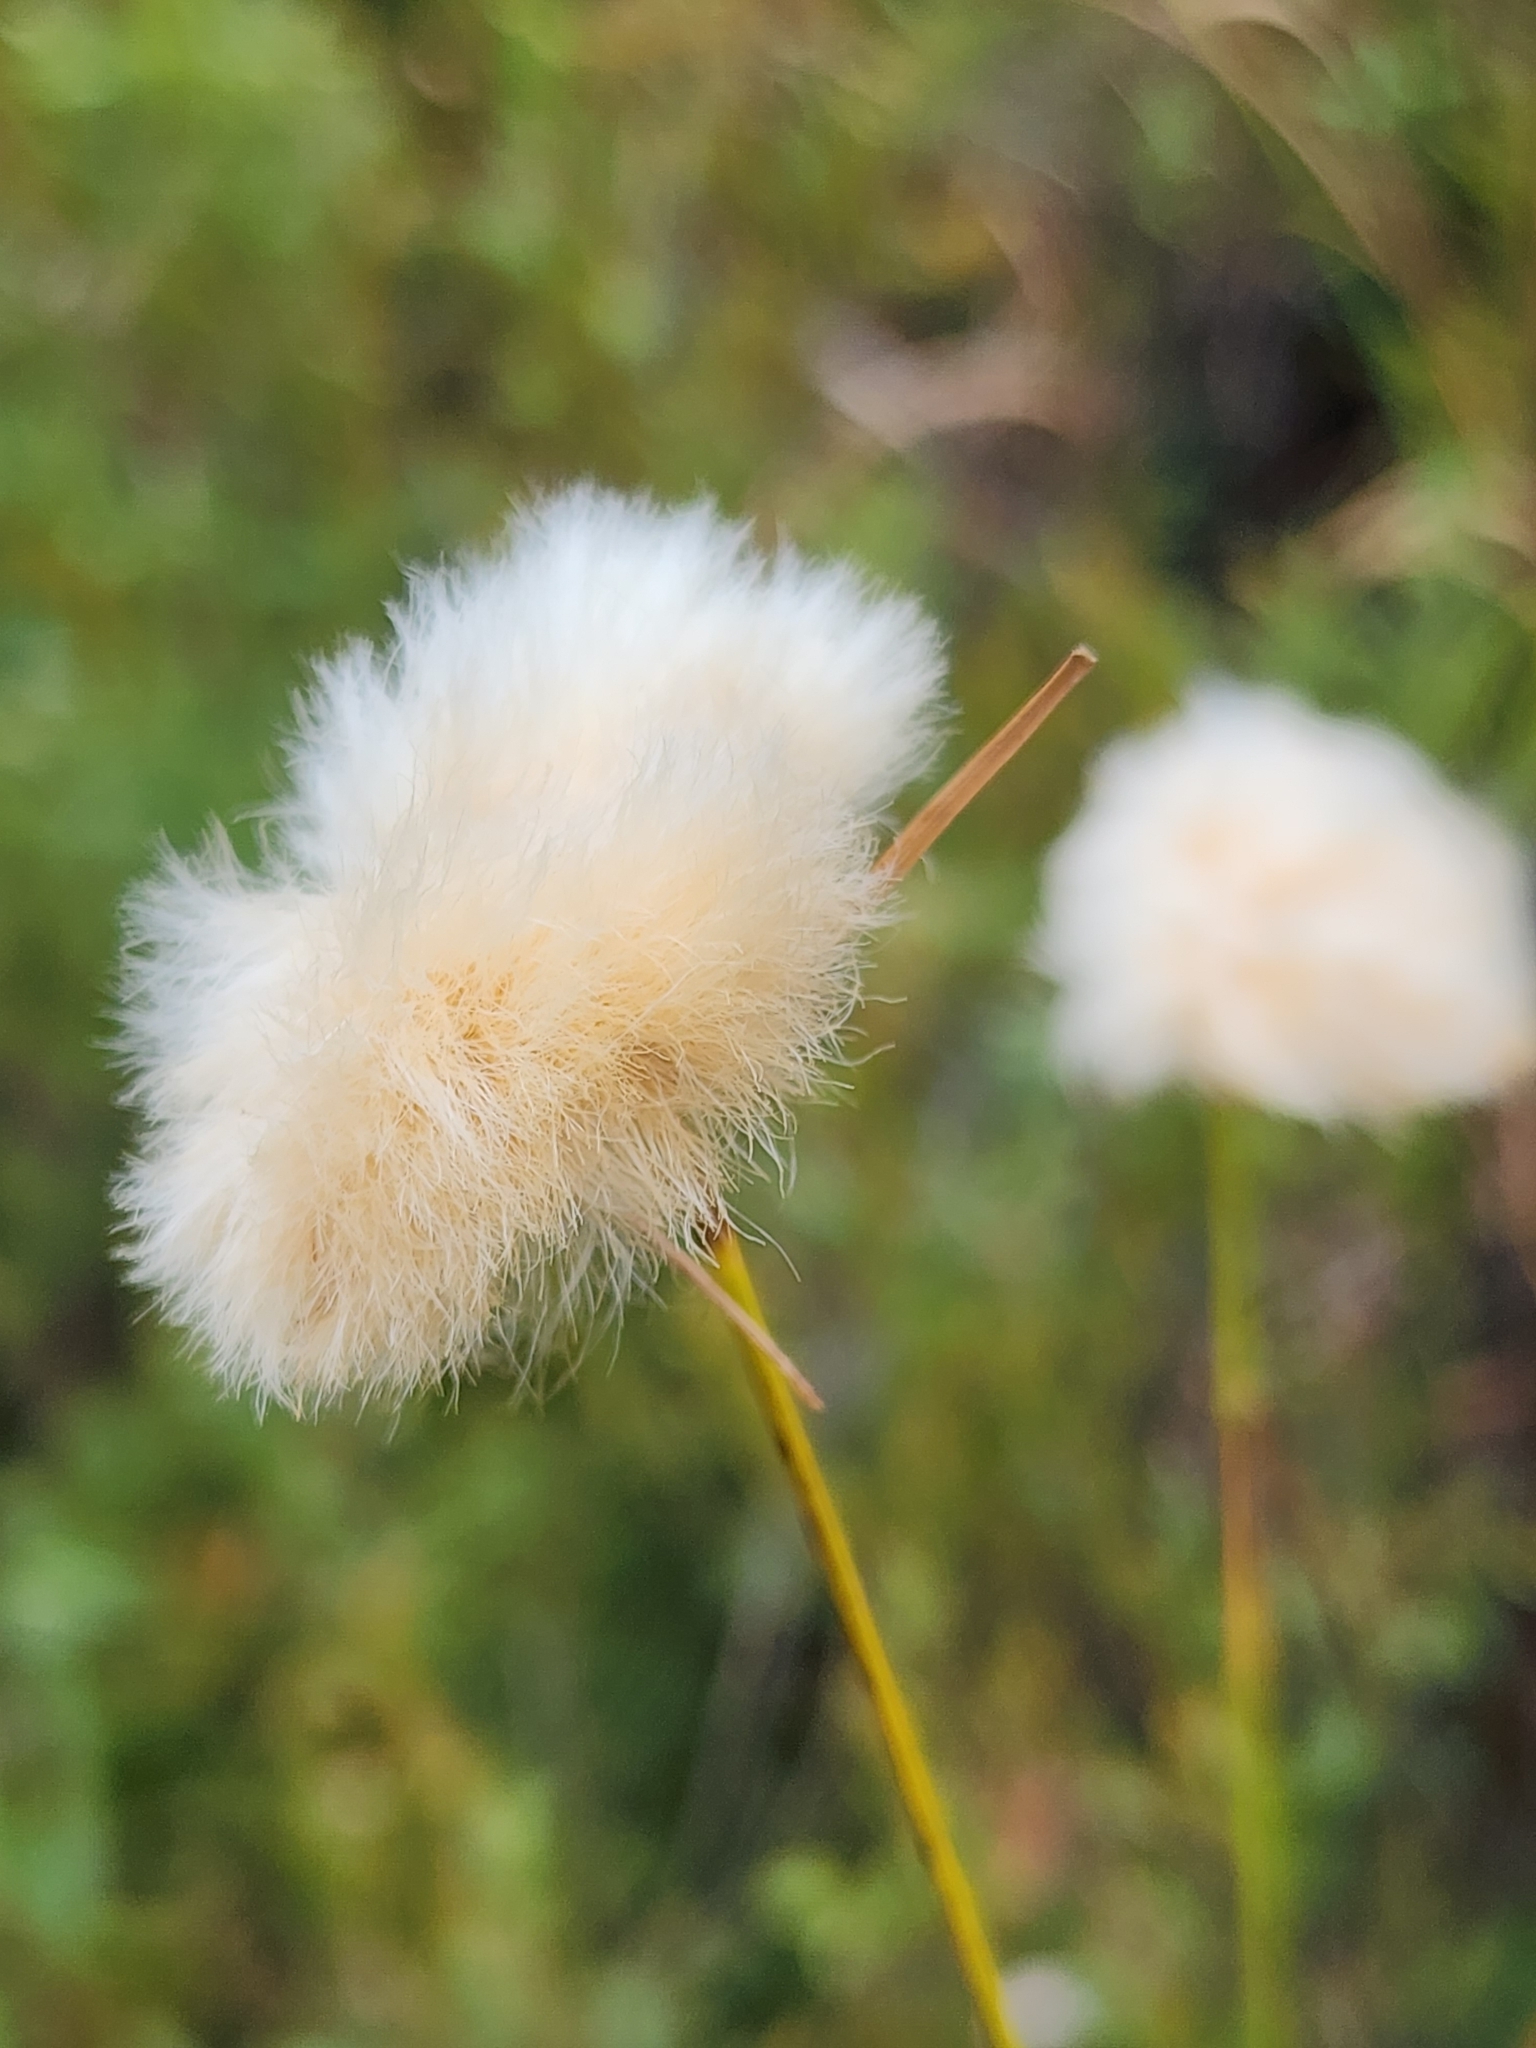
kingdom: Plantae
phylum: Tracheophyta
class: Liliopsida
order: Poales
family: Cyperaceae
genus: Eriophorum
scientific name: Eriophorum virginicum
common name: Tawny cottongrass
